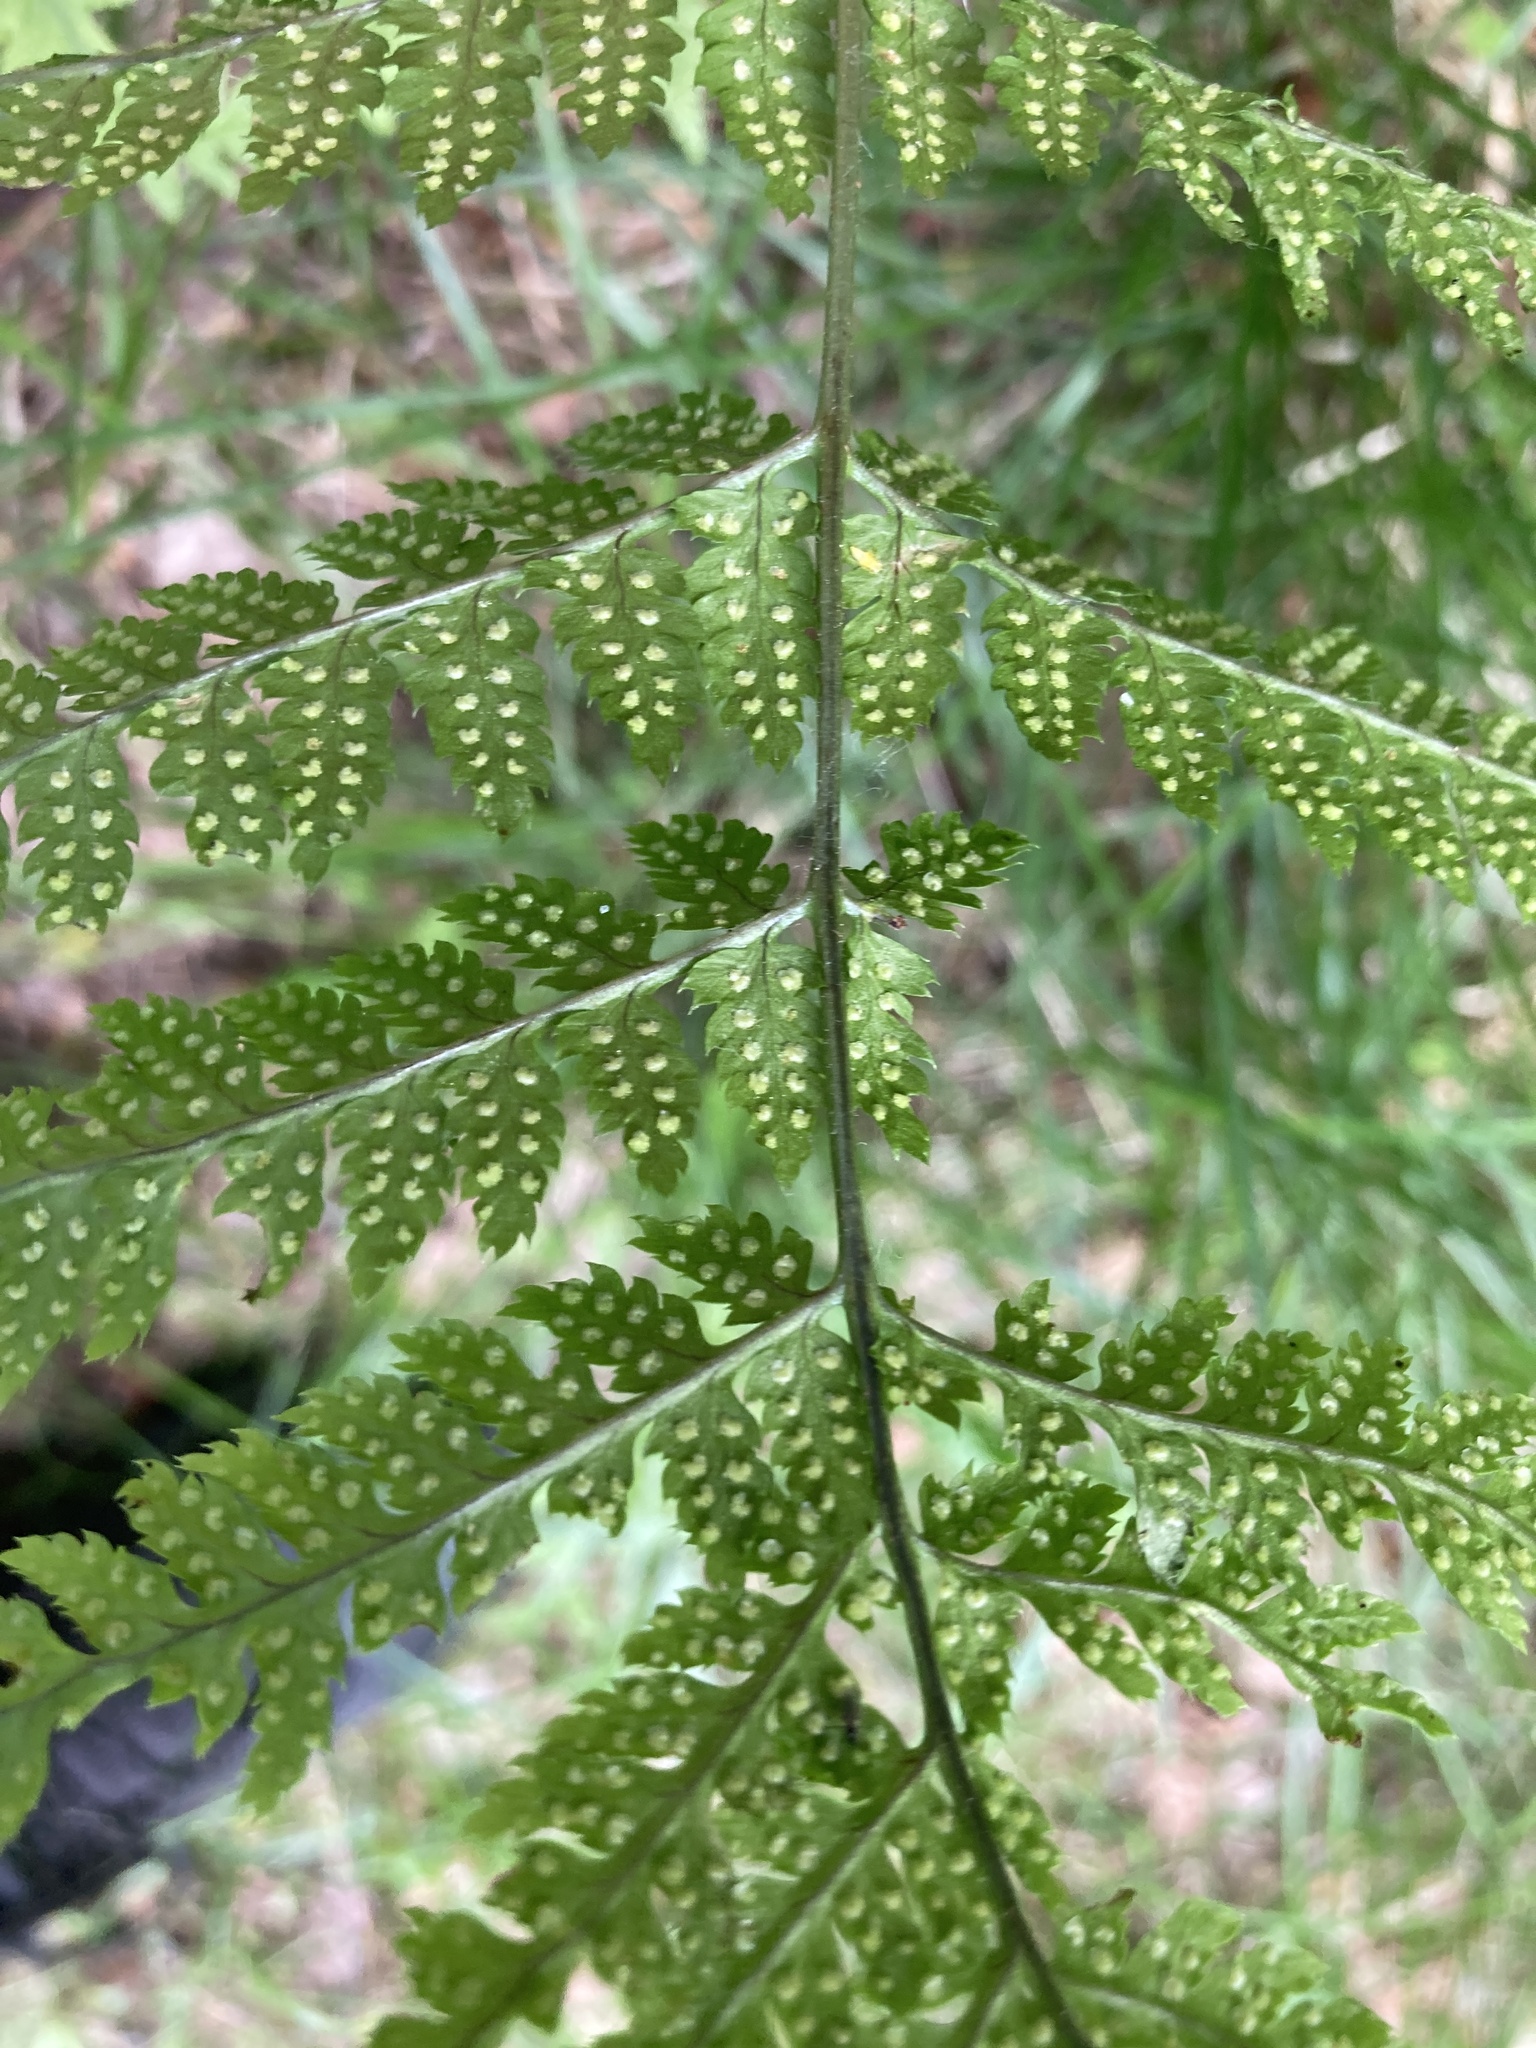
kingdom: Plantae
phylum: Tracheophyta
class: Polypodiopsida
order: Polypodiales
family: Dryopteridaceae
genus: Dryopteris
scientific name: Dryopteris carthusiana
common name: Narrow buckler-fern
